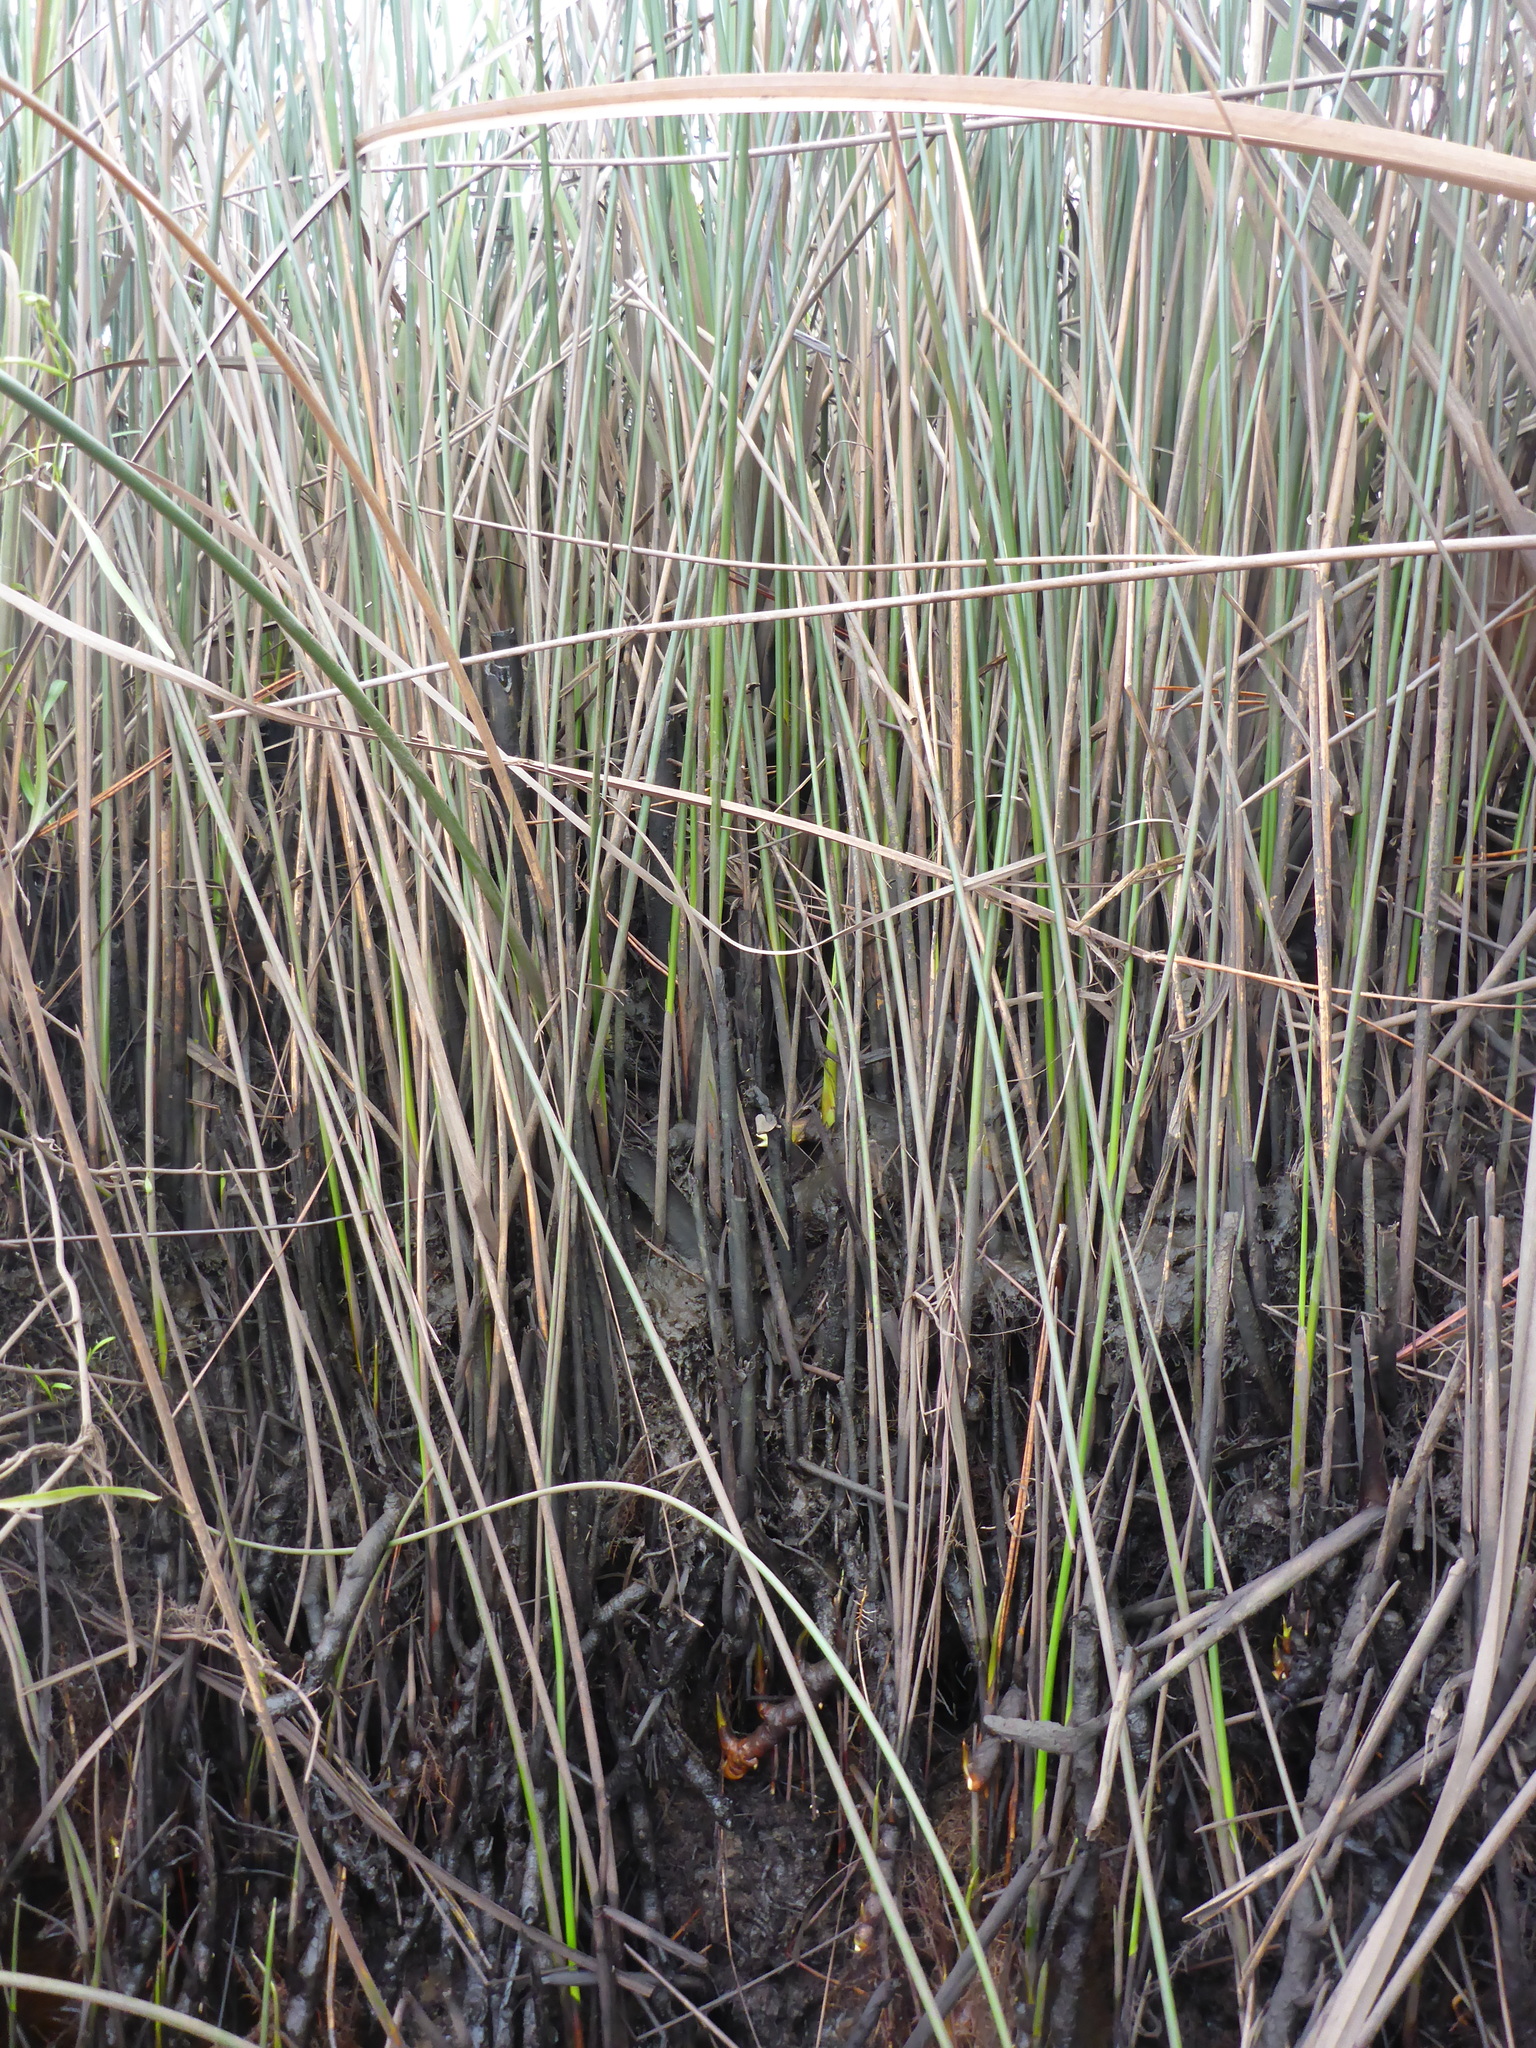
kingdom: Plantae
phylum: Tracheophyta
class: Liliopsida
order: Poales
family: Juncaceae
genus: Juncus
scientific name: Juncus roemerianus
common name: Roemer's rush
